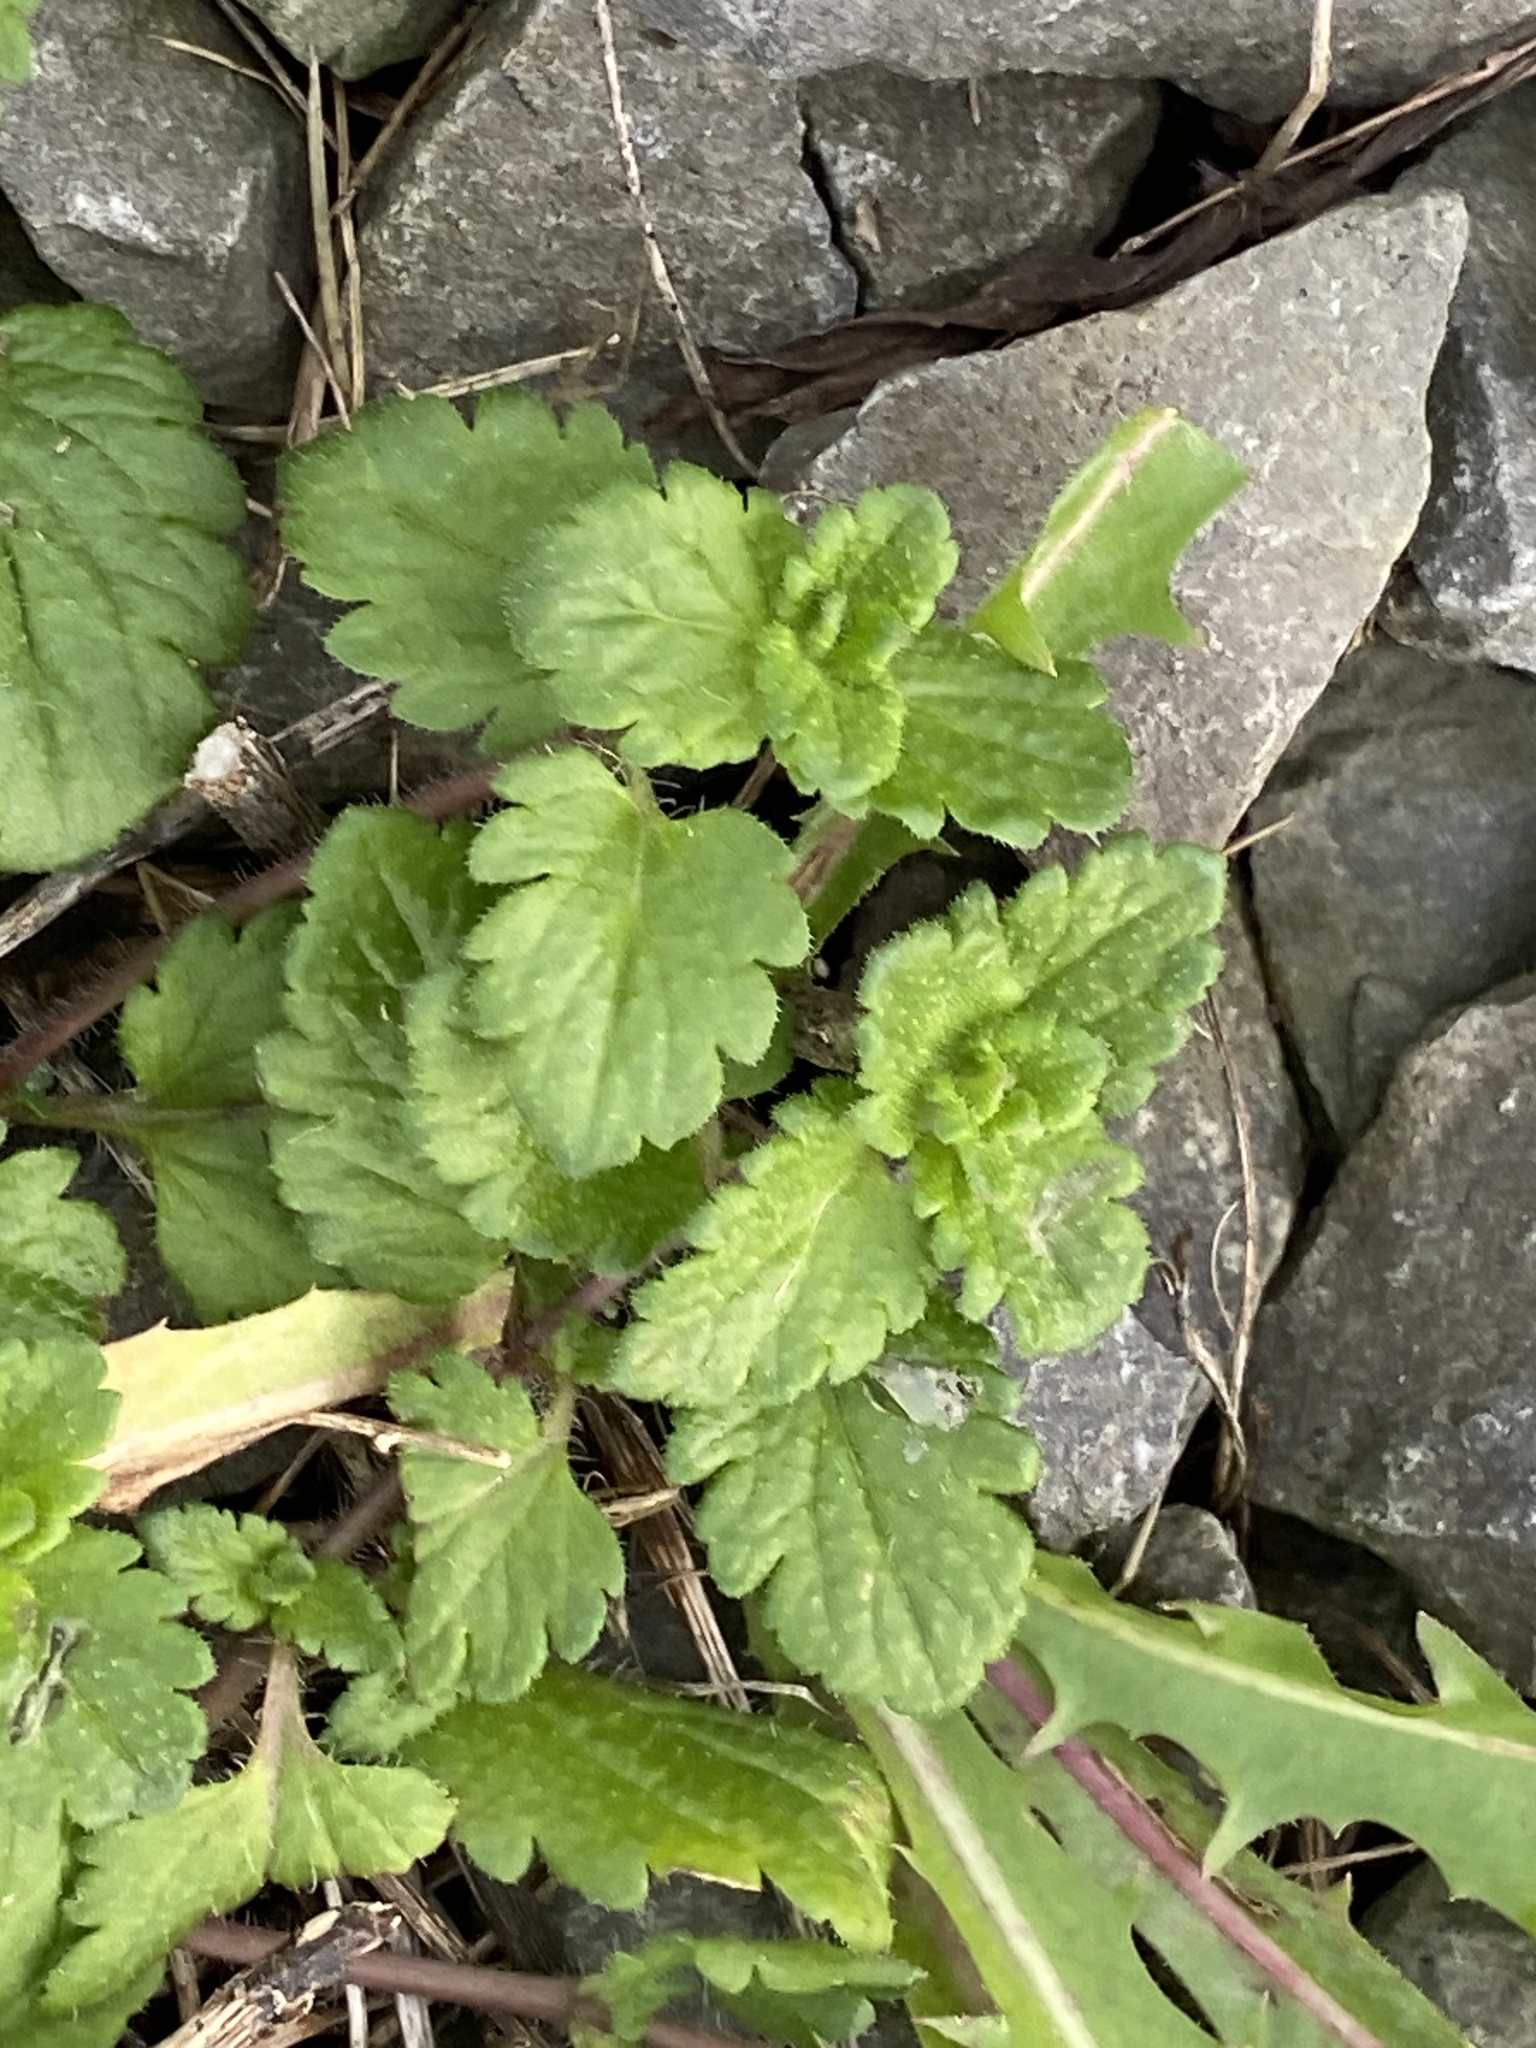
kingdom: Plantae
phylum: Tracheophyta
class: Magnoliopsida
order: Lamiales
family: Plantaginaceae
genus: Veronica
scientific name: Veronica persica
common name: Common field-speedwell
